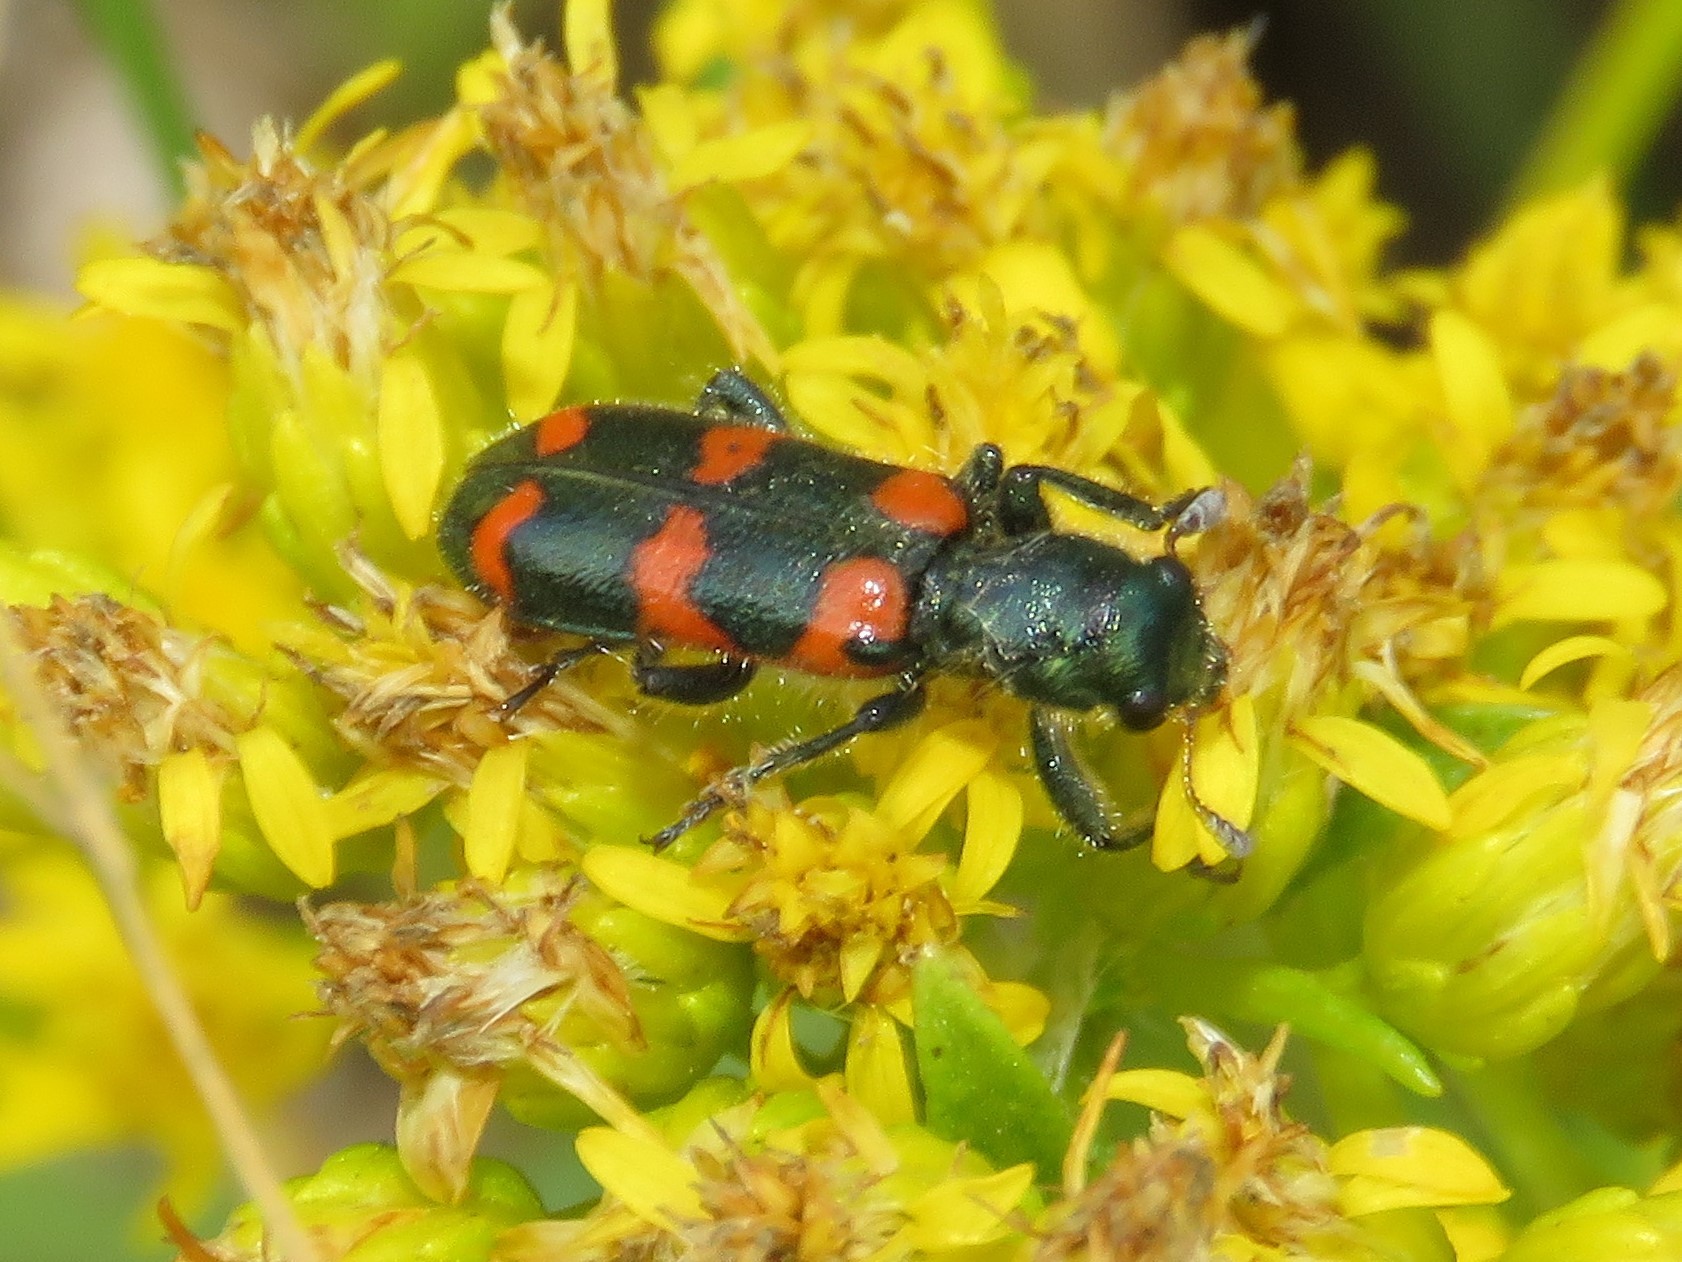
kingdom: Animalia
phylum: Arthropoda
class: Insecta
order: Coleoptera
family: Cleridae
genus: Trichodes
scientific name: Trichodes nutalli
